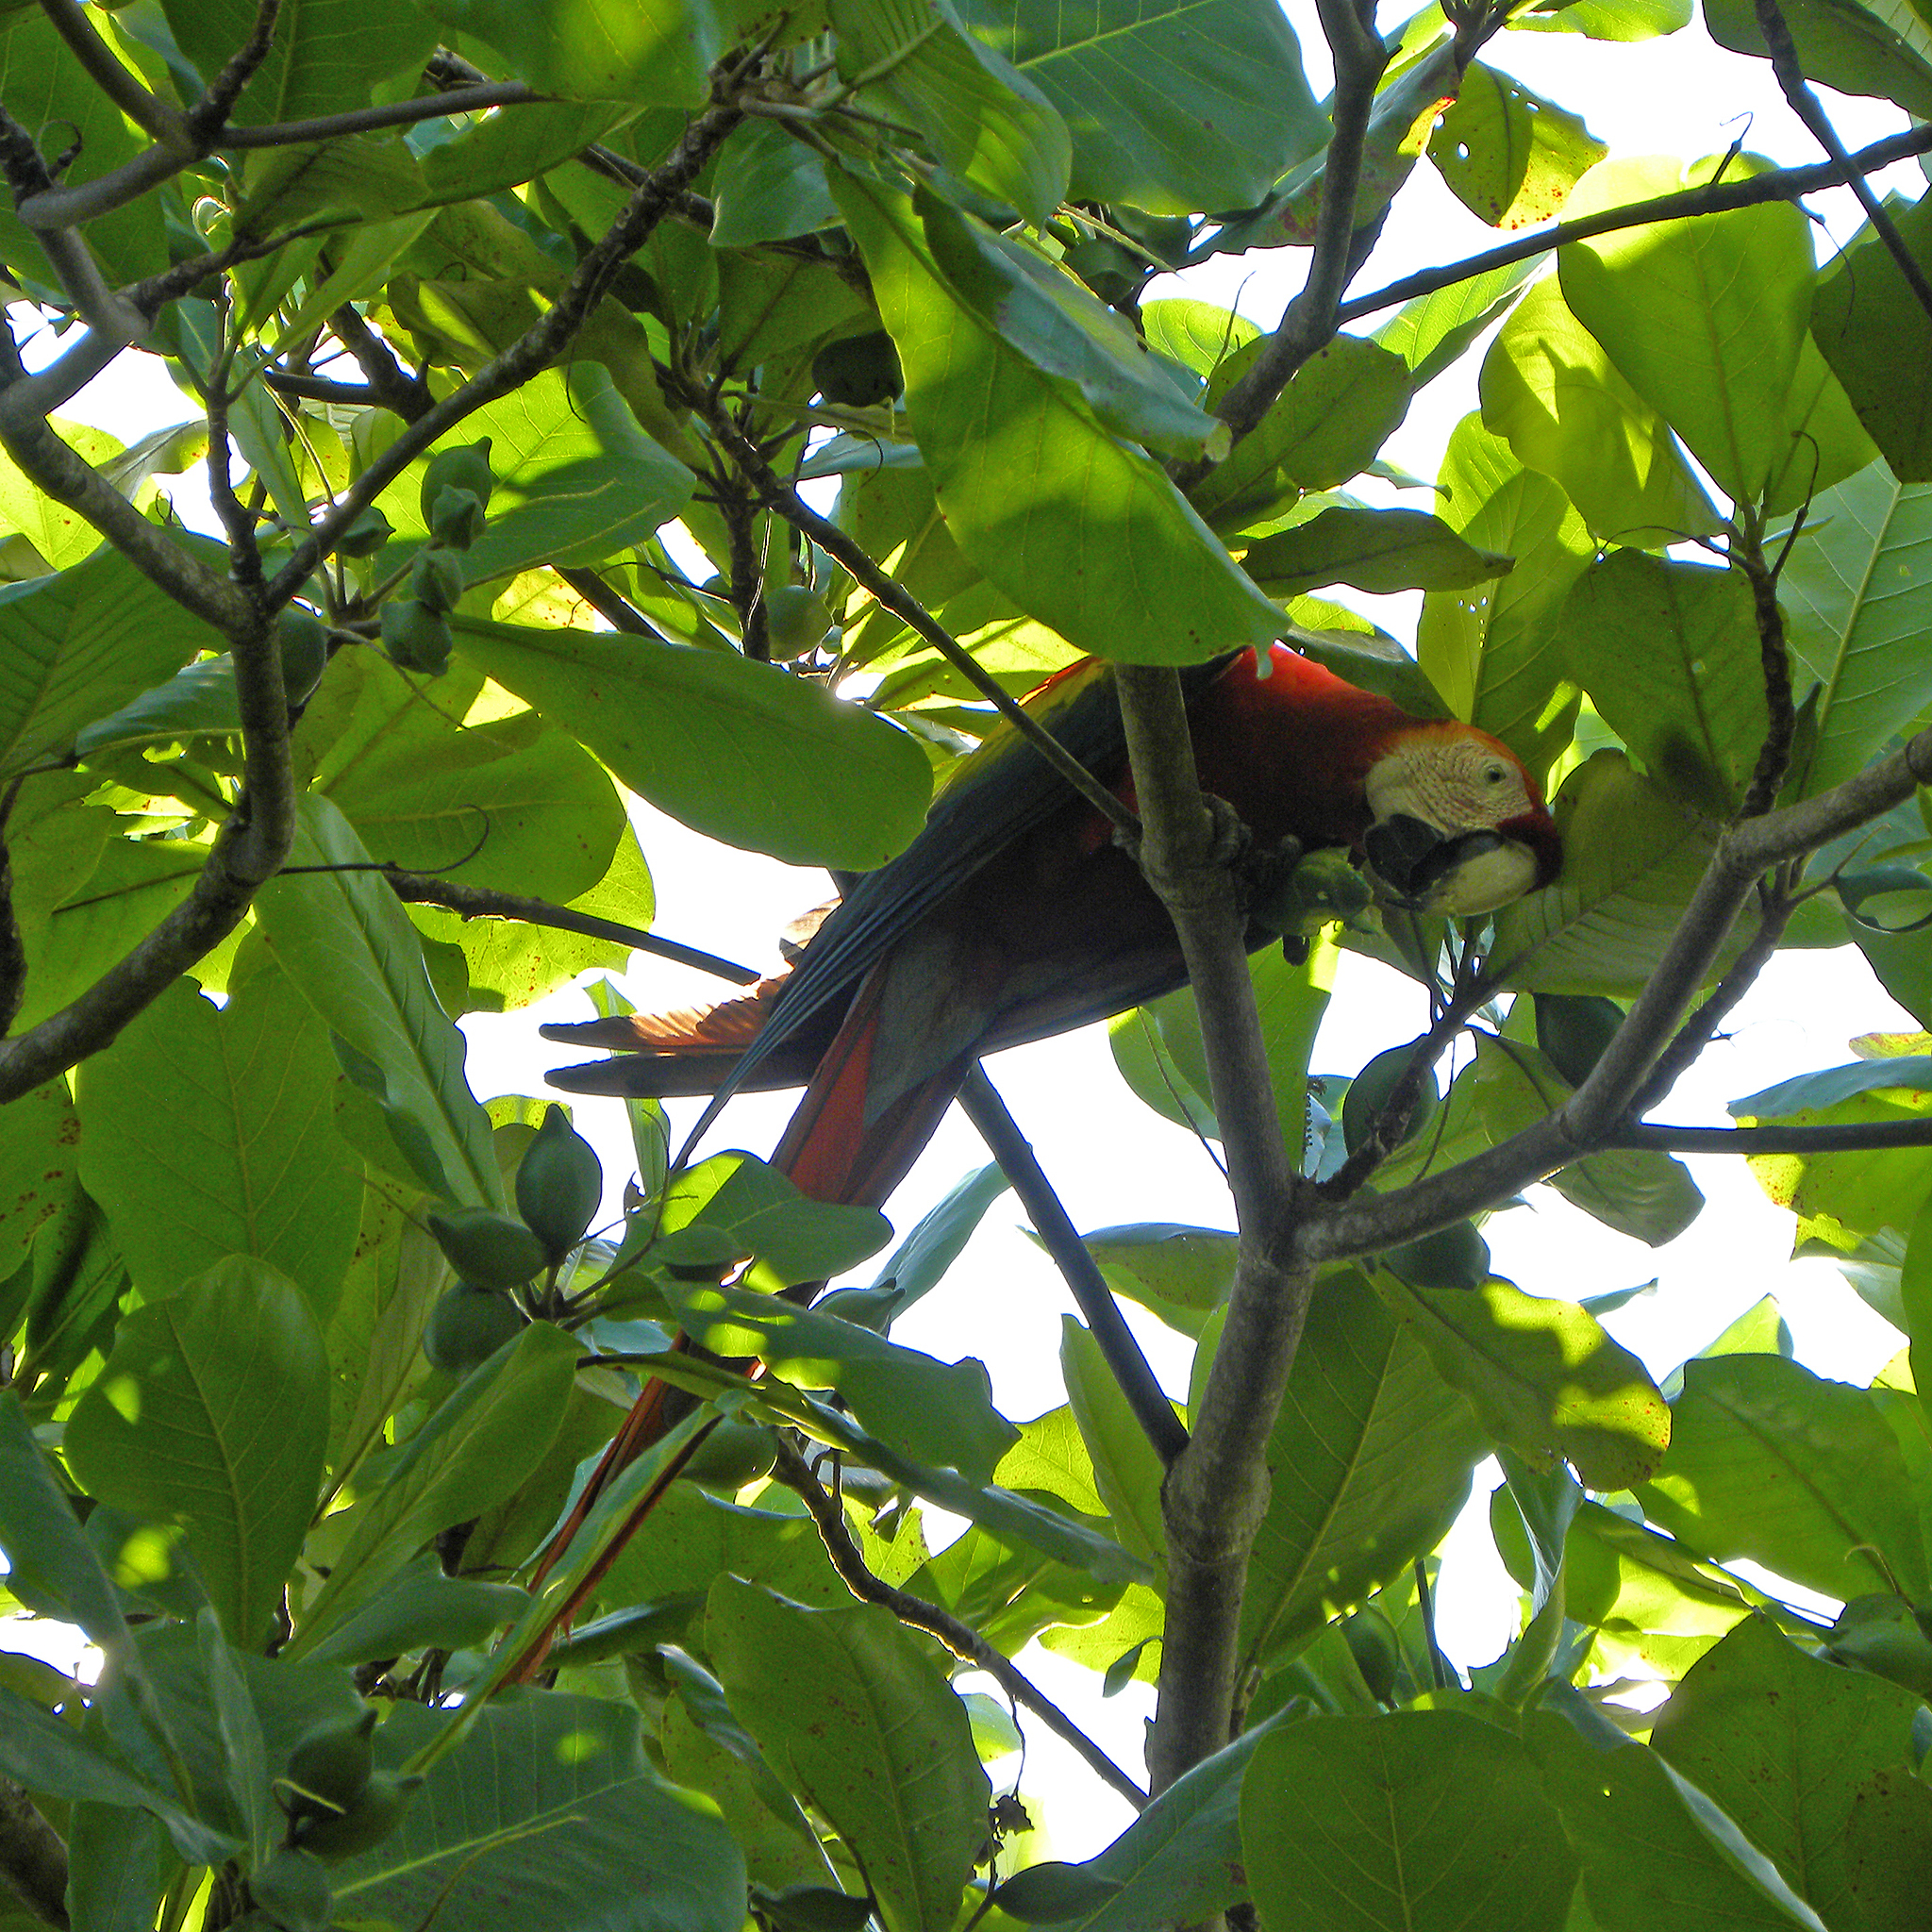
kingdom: Animalia
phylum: Chordata
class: Aves
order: Psittaciformes
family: Psittacidae
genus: Ara
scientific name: Ara macao
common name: Scarlet macaw
